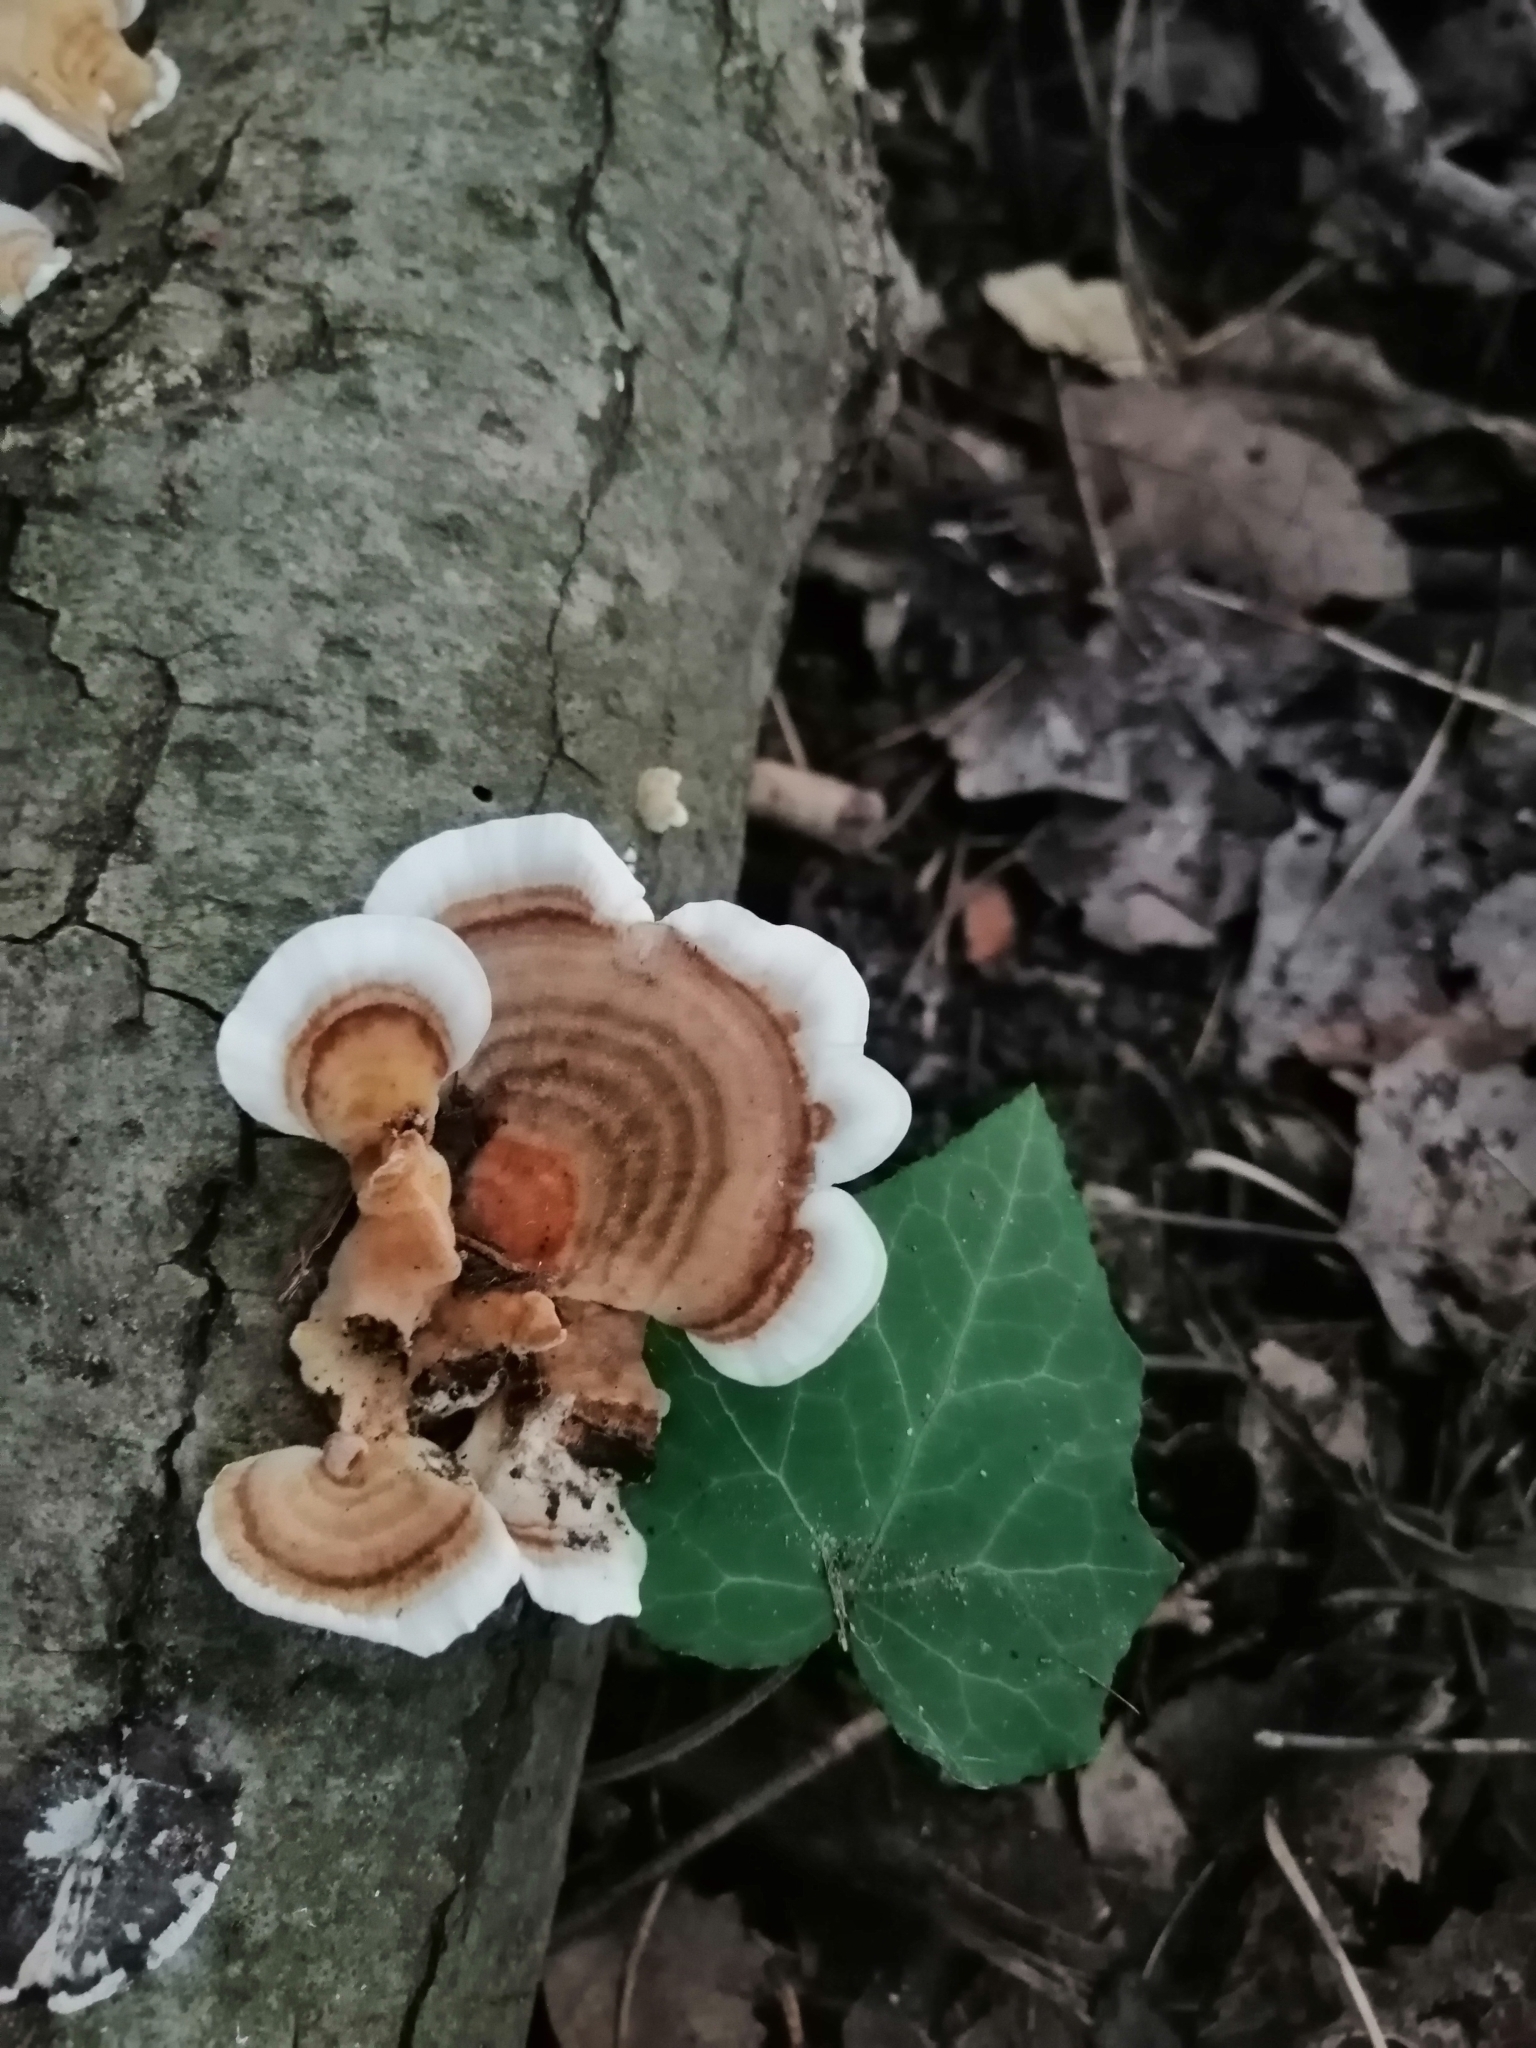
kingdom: Fungi
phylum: Basidiomycota
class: Agaricomycetes
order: Polyporales
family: Polyporaceae
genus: Trametes
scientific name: Trametes versicolor
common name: Turkeytail
